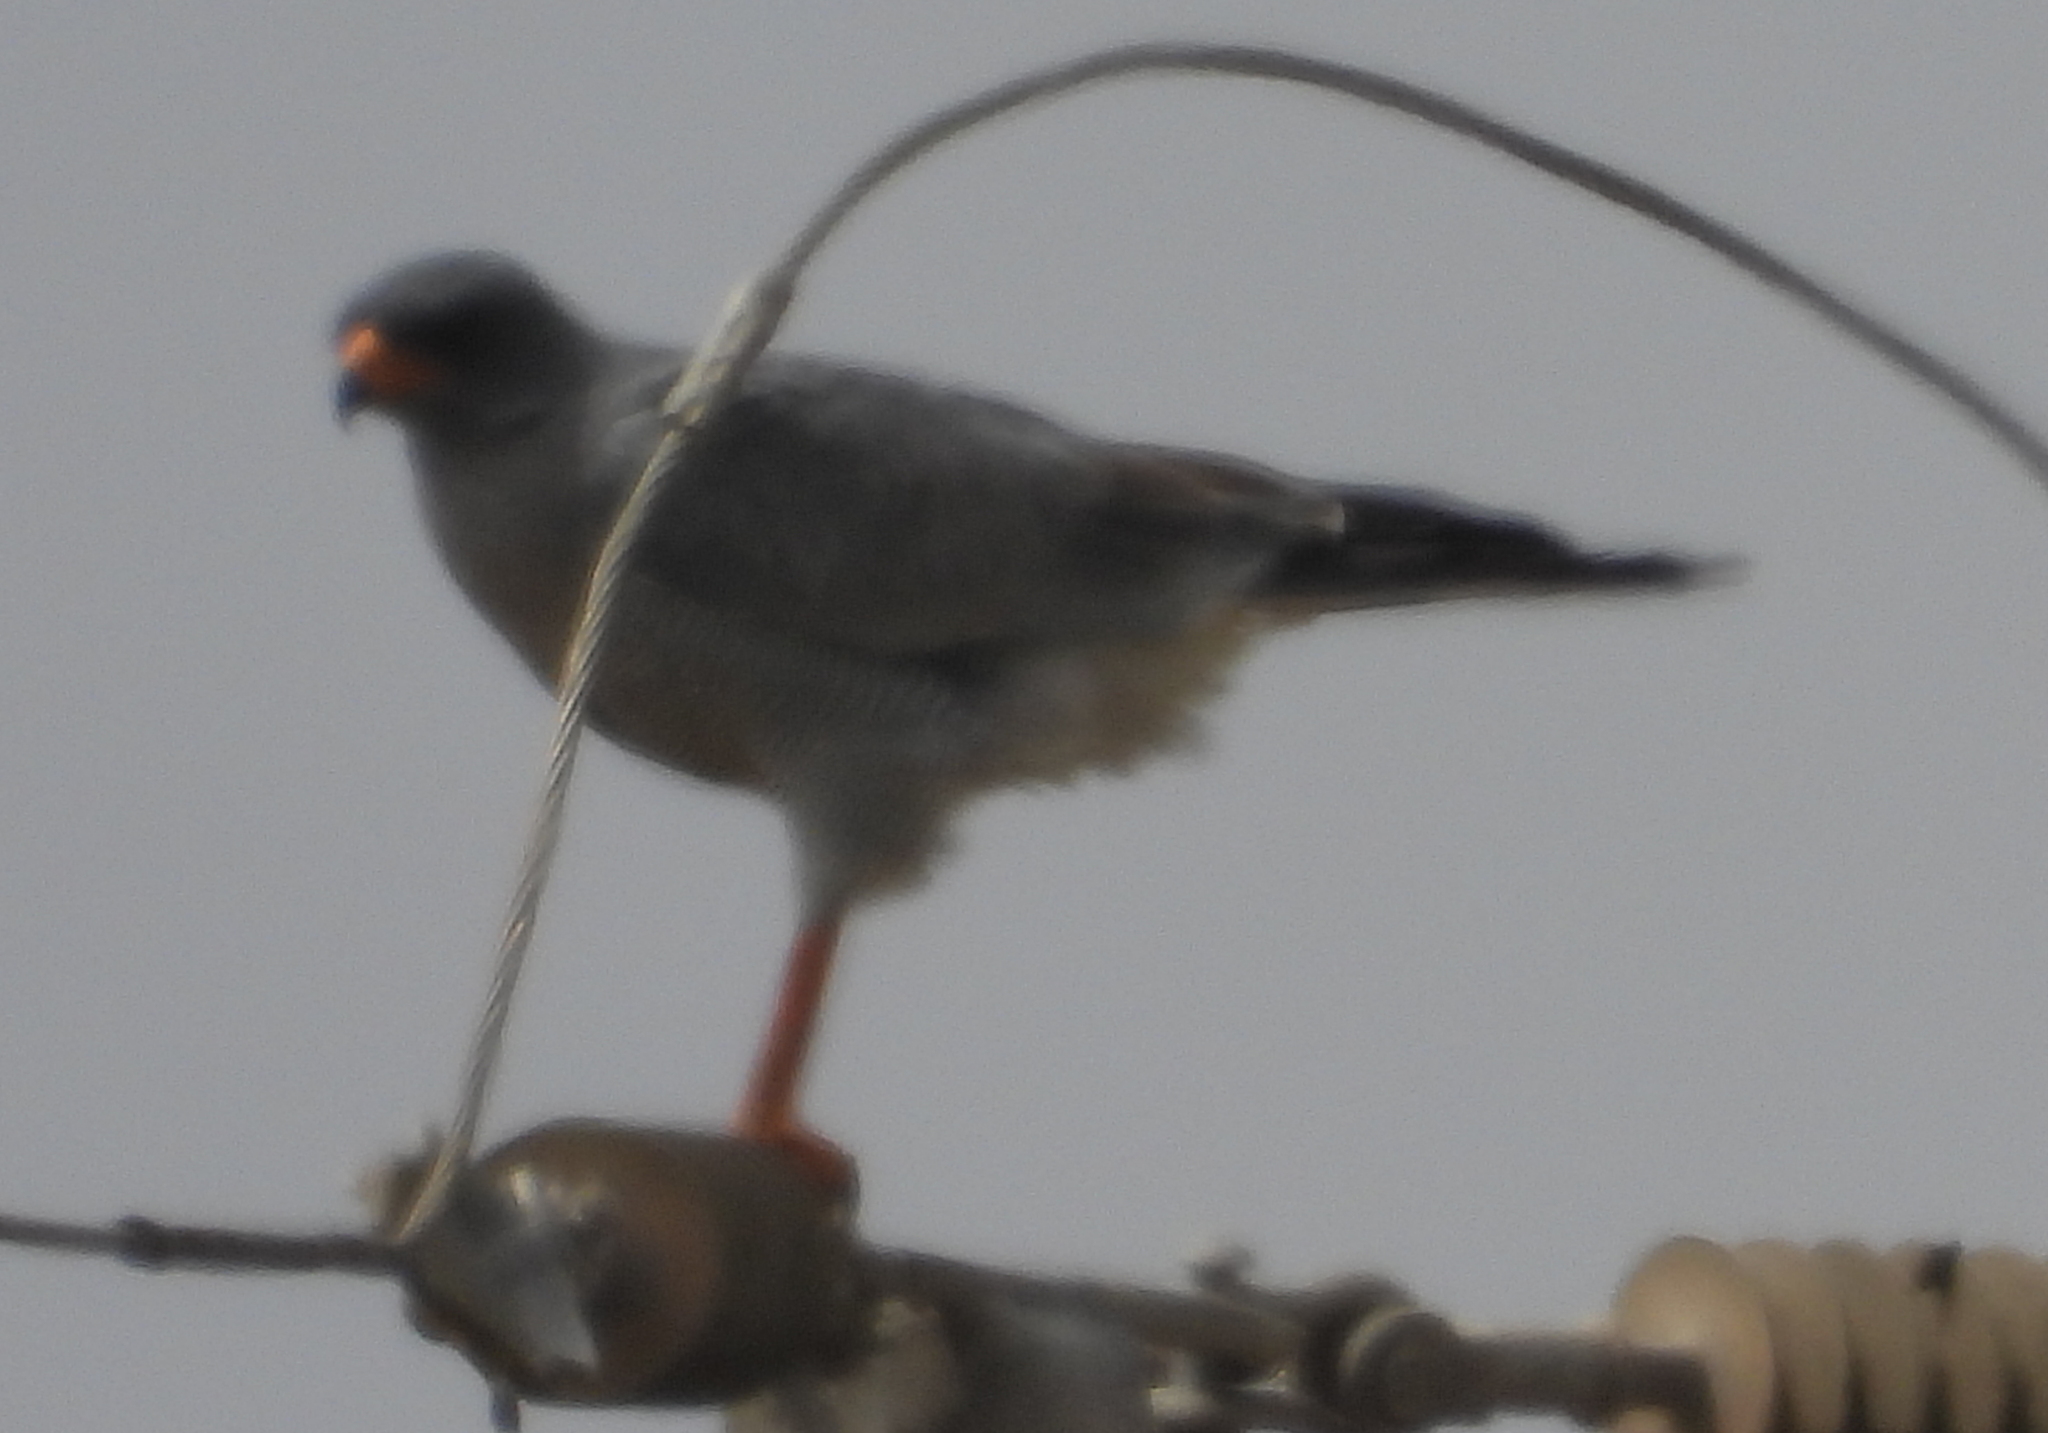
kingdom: Animalia
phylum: Chordata
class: Aves
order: Accipitriformes
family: Accipitridae
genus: Melierax
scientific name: Melierax canorus
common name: Pale chanting-goshawk
